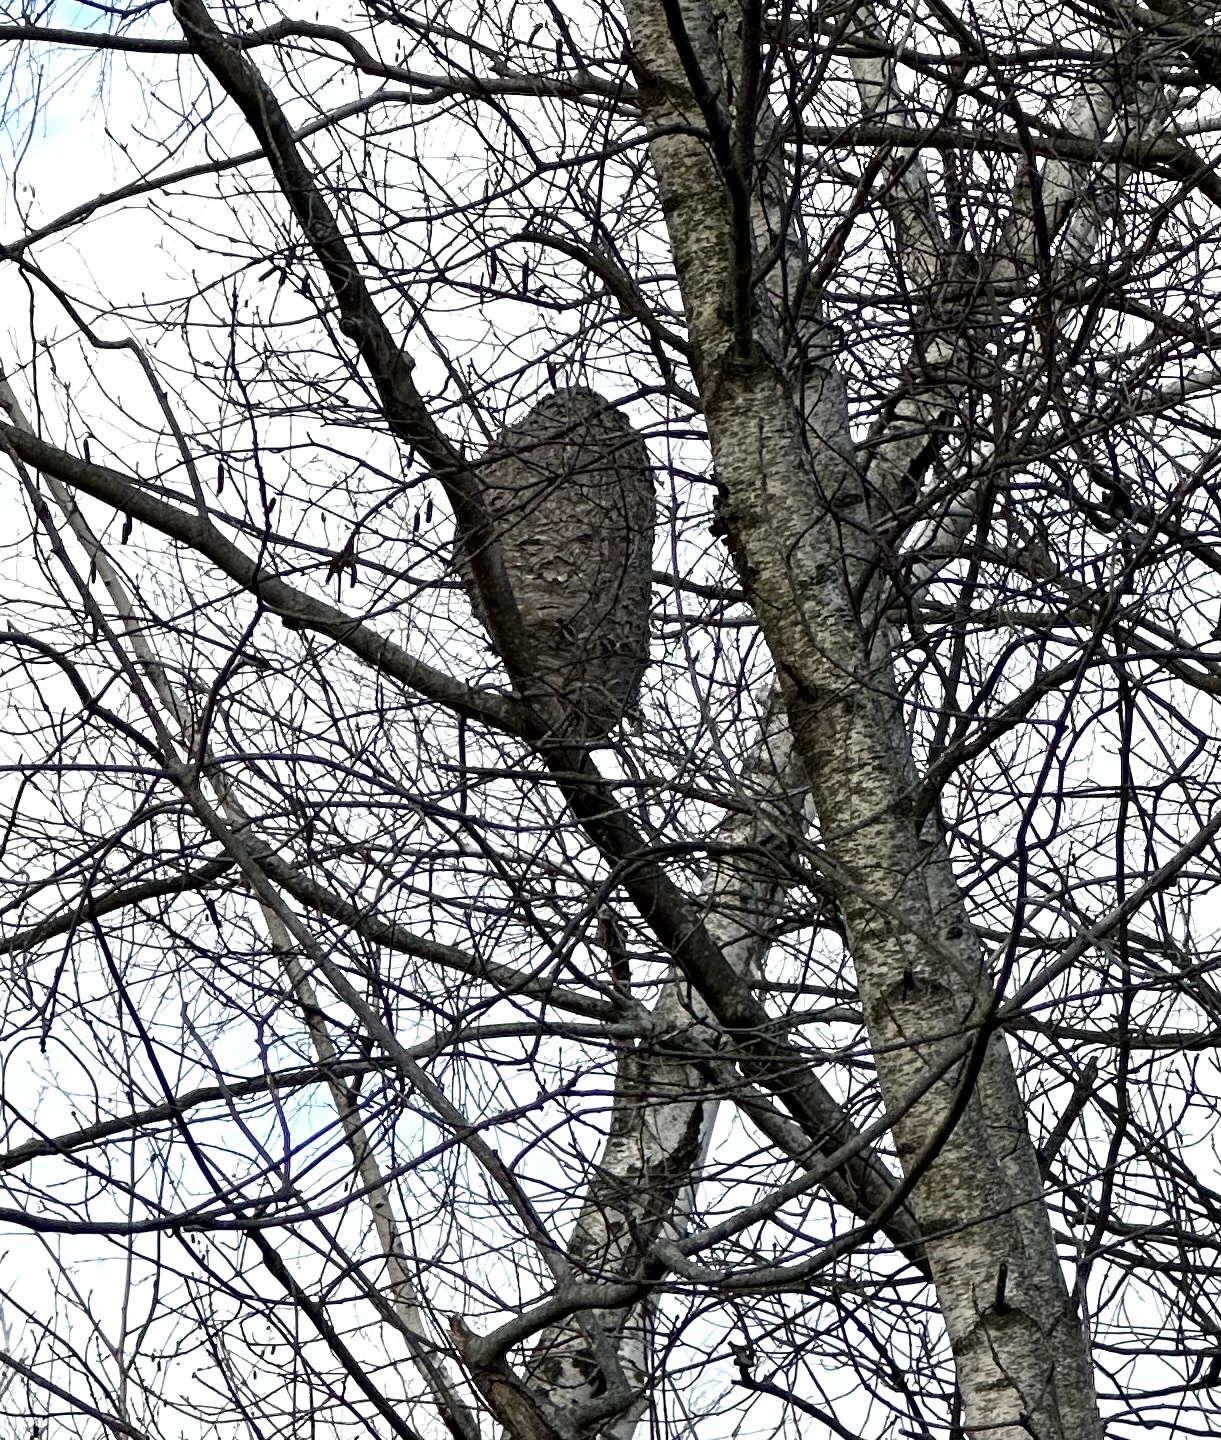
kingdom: Animalia
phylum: Arthropoda
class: Insecta
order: Hymenoptera
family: Vespidae
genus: Dolichovespula
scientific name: Dolichovespula maculata
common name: Bald-faced hornet
